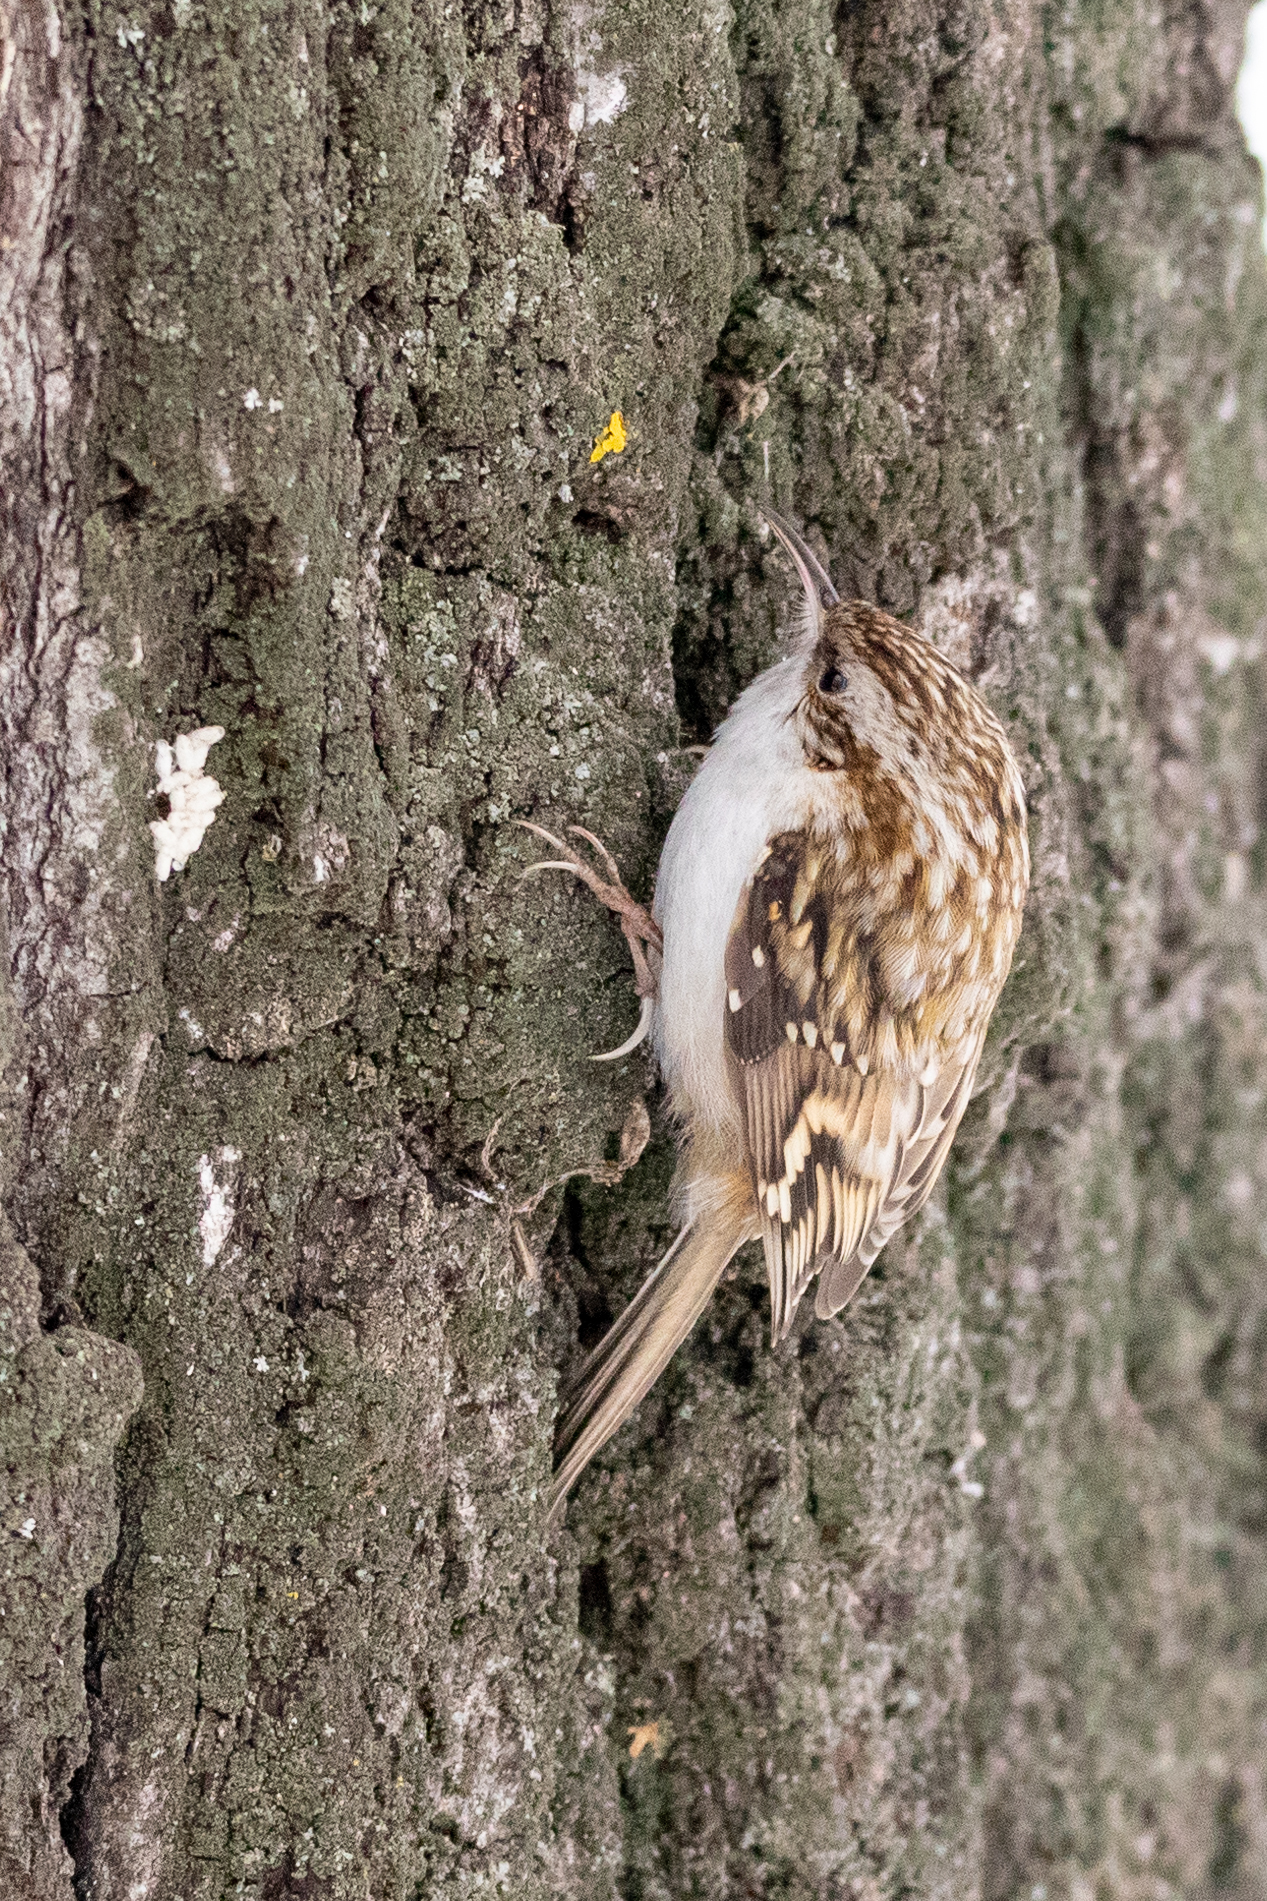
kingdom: Animalia
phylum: Chordata
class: Aves
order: Passeriformes
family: Certhiidae
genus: Certhia
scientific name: Certhia familiaris
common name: Eurasian treecreeper
